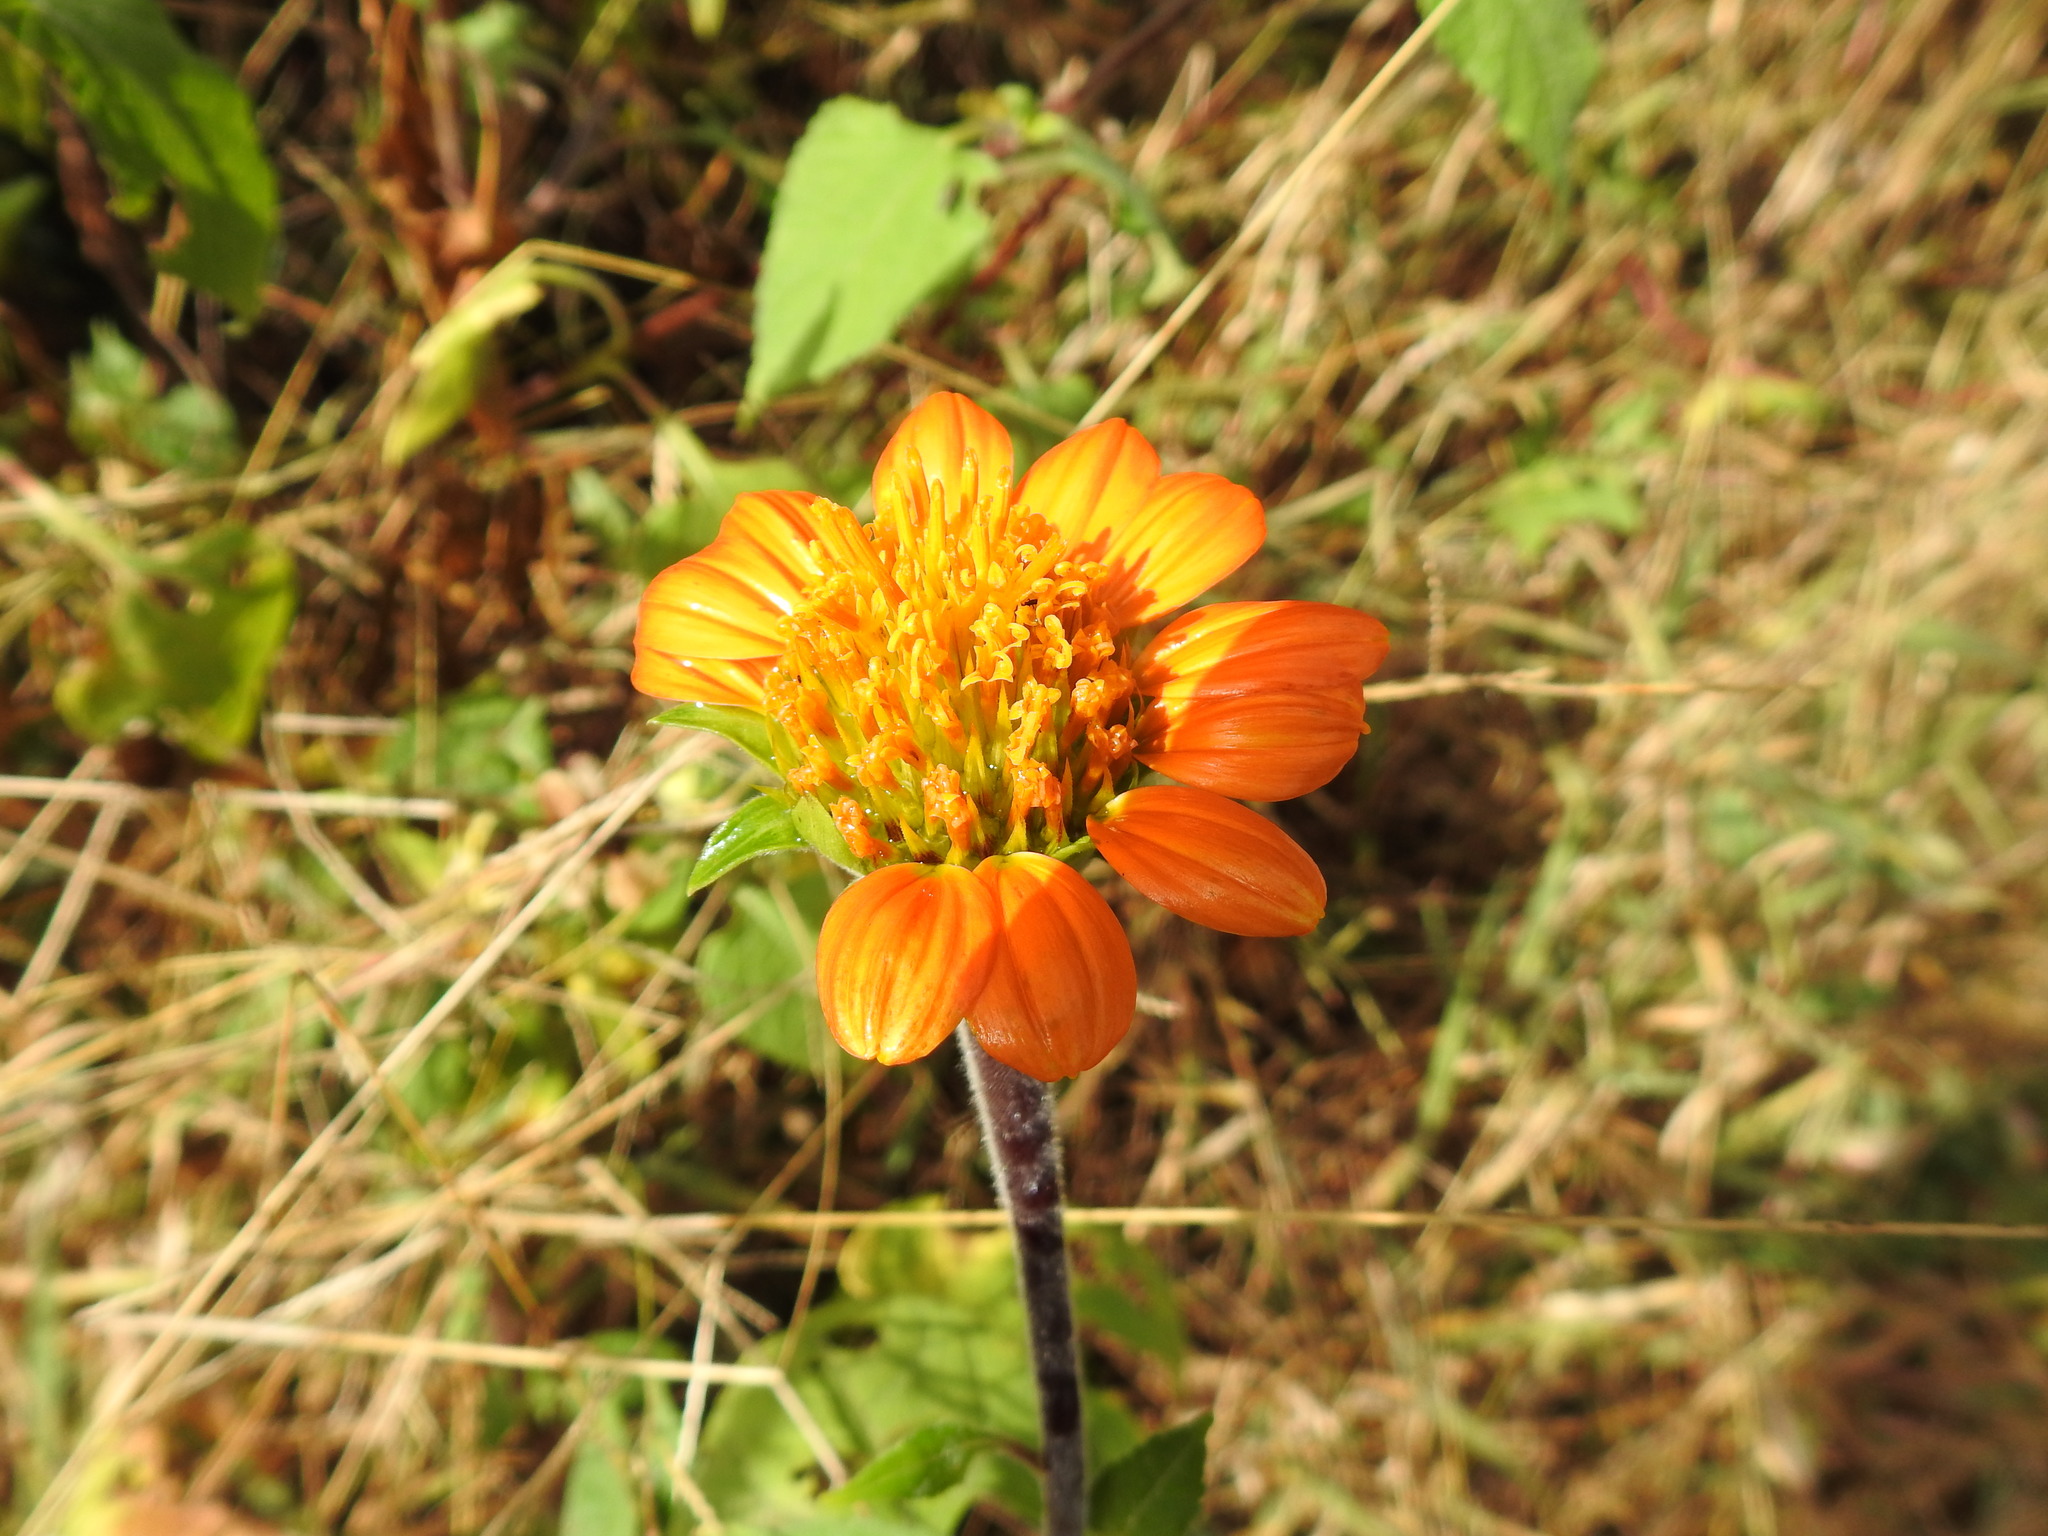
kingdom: Plantae
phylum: Tracheophyta
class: Magnoliopsida
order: Asterales
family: Asteraceae
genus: Tithonia
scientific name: Tithonia rotundifolia
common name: Sunflower
